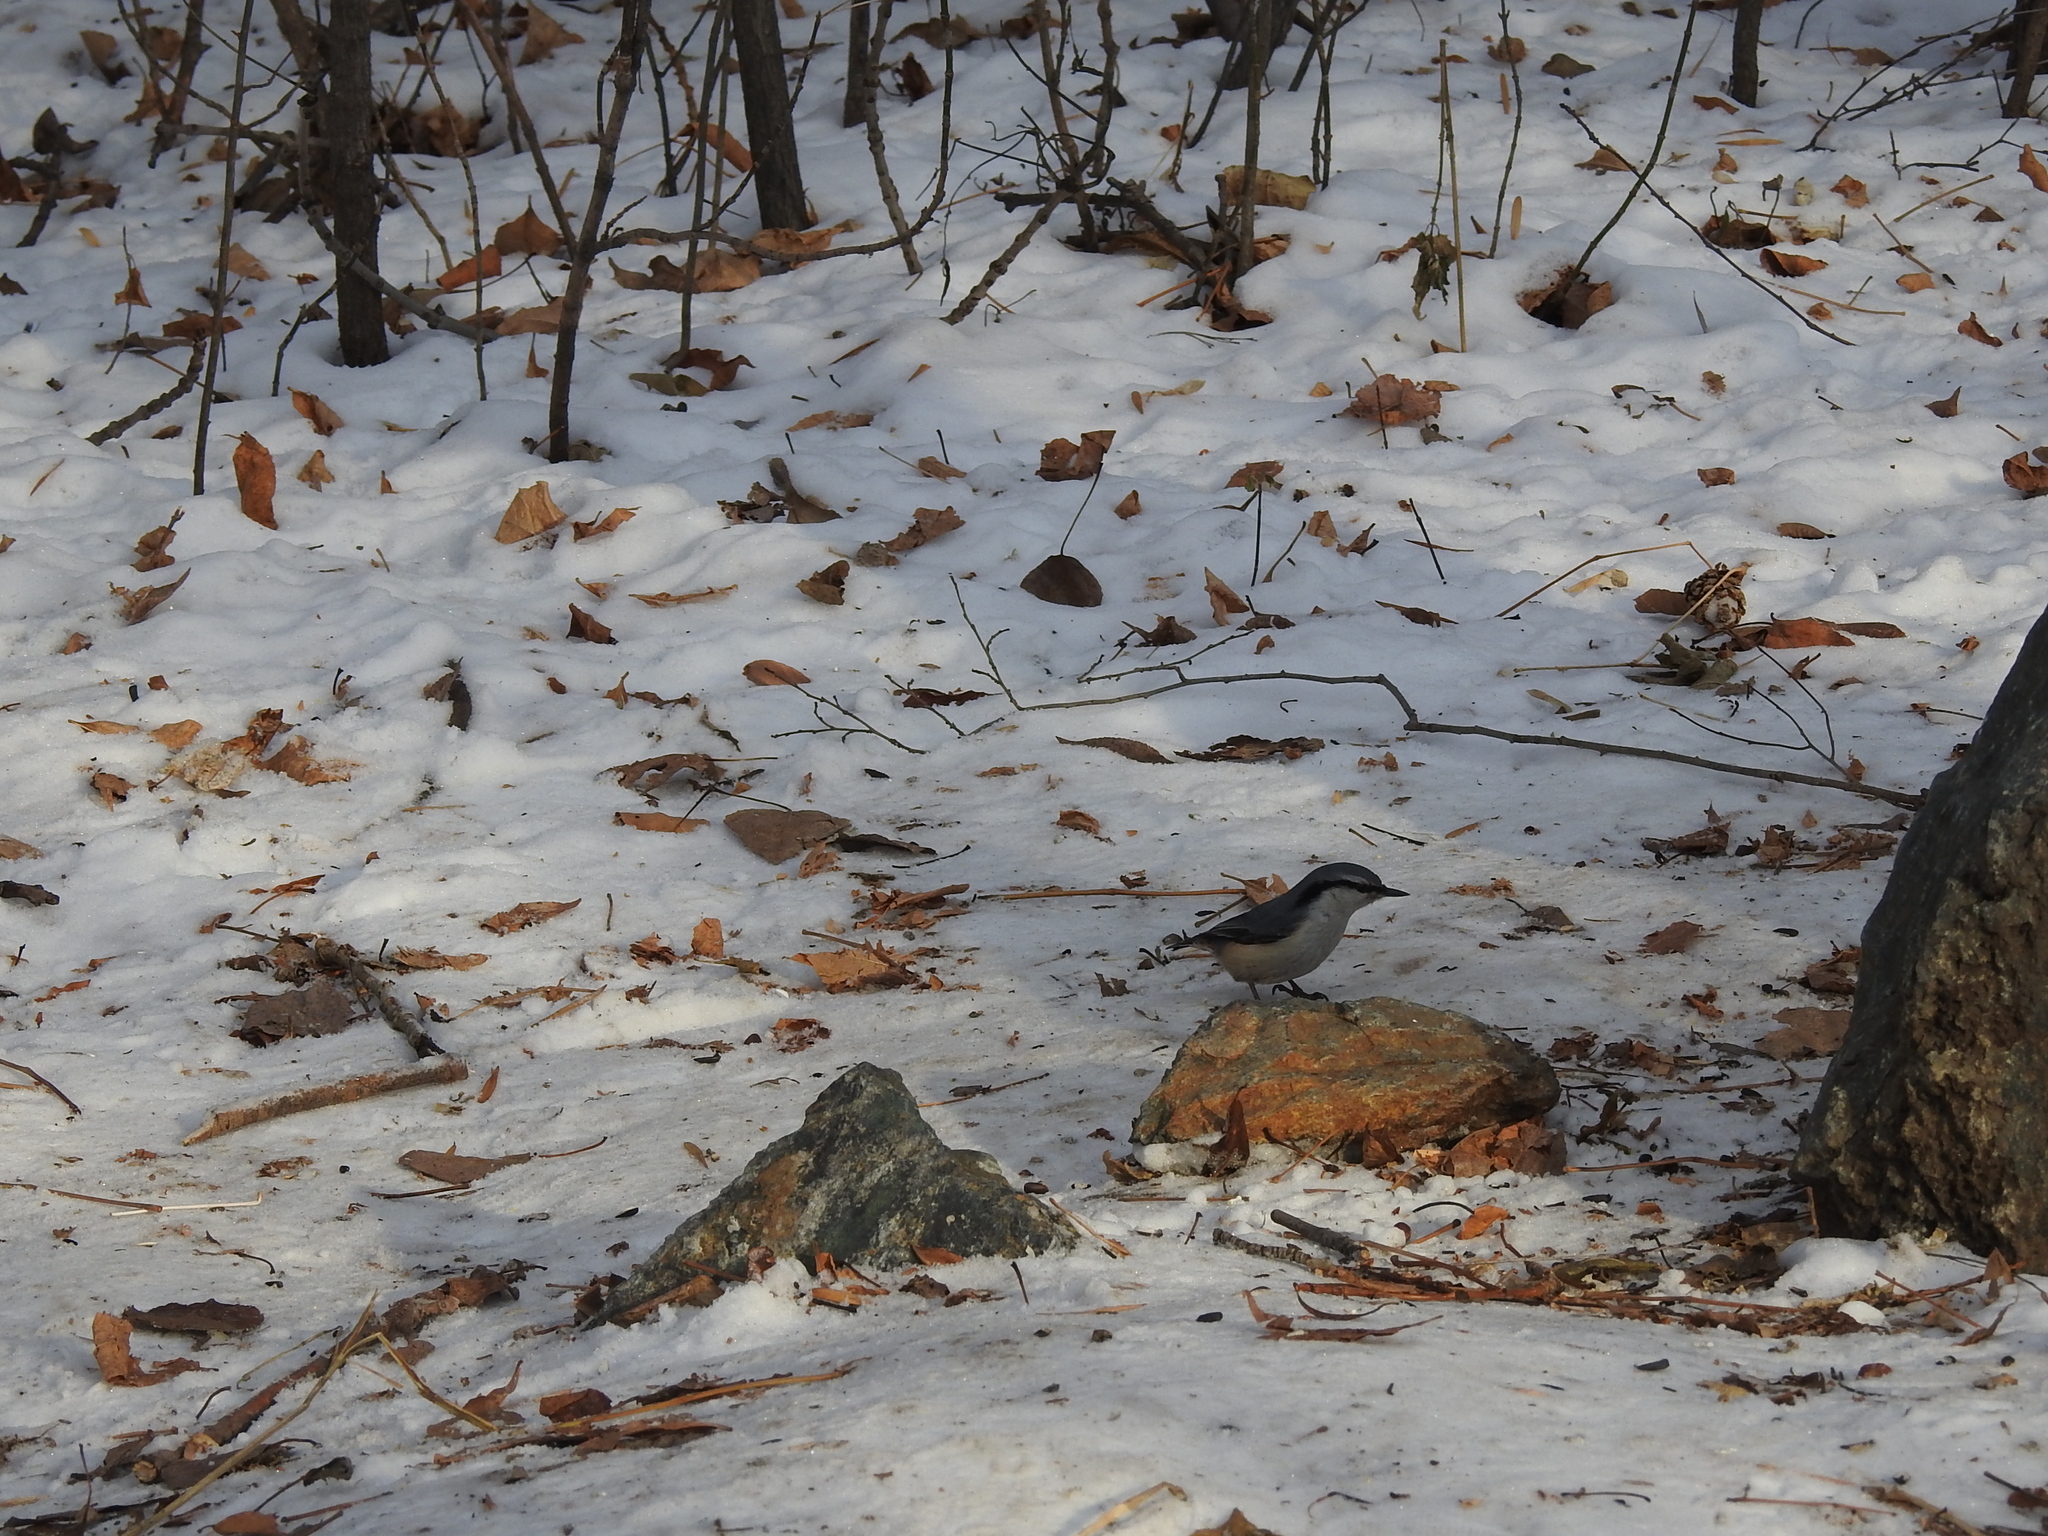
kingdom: Animalia
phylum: Chordata
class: Aves
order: Passeriformes
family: Sittidae
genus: Sitta
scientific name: Sitta europaea
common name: Eurasian nuthatch
